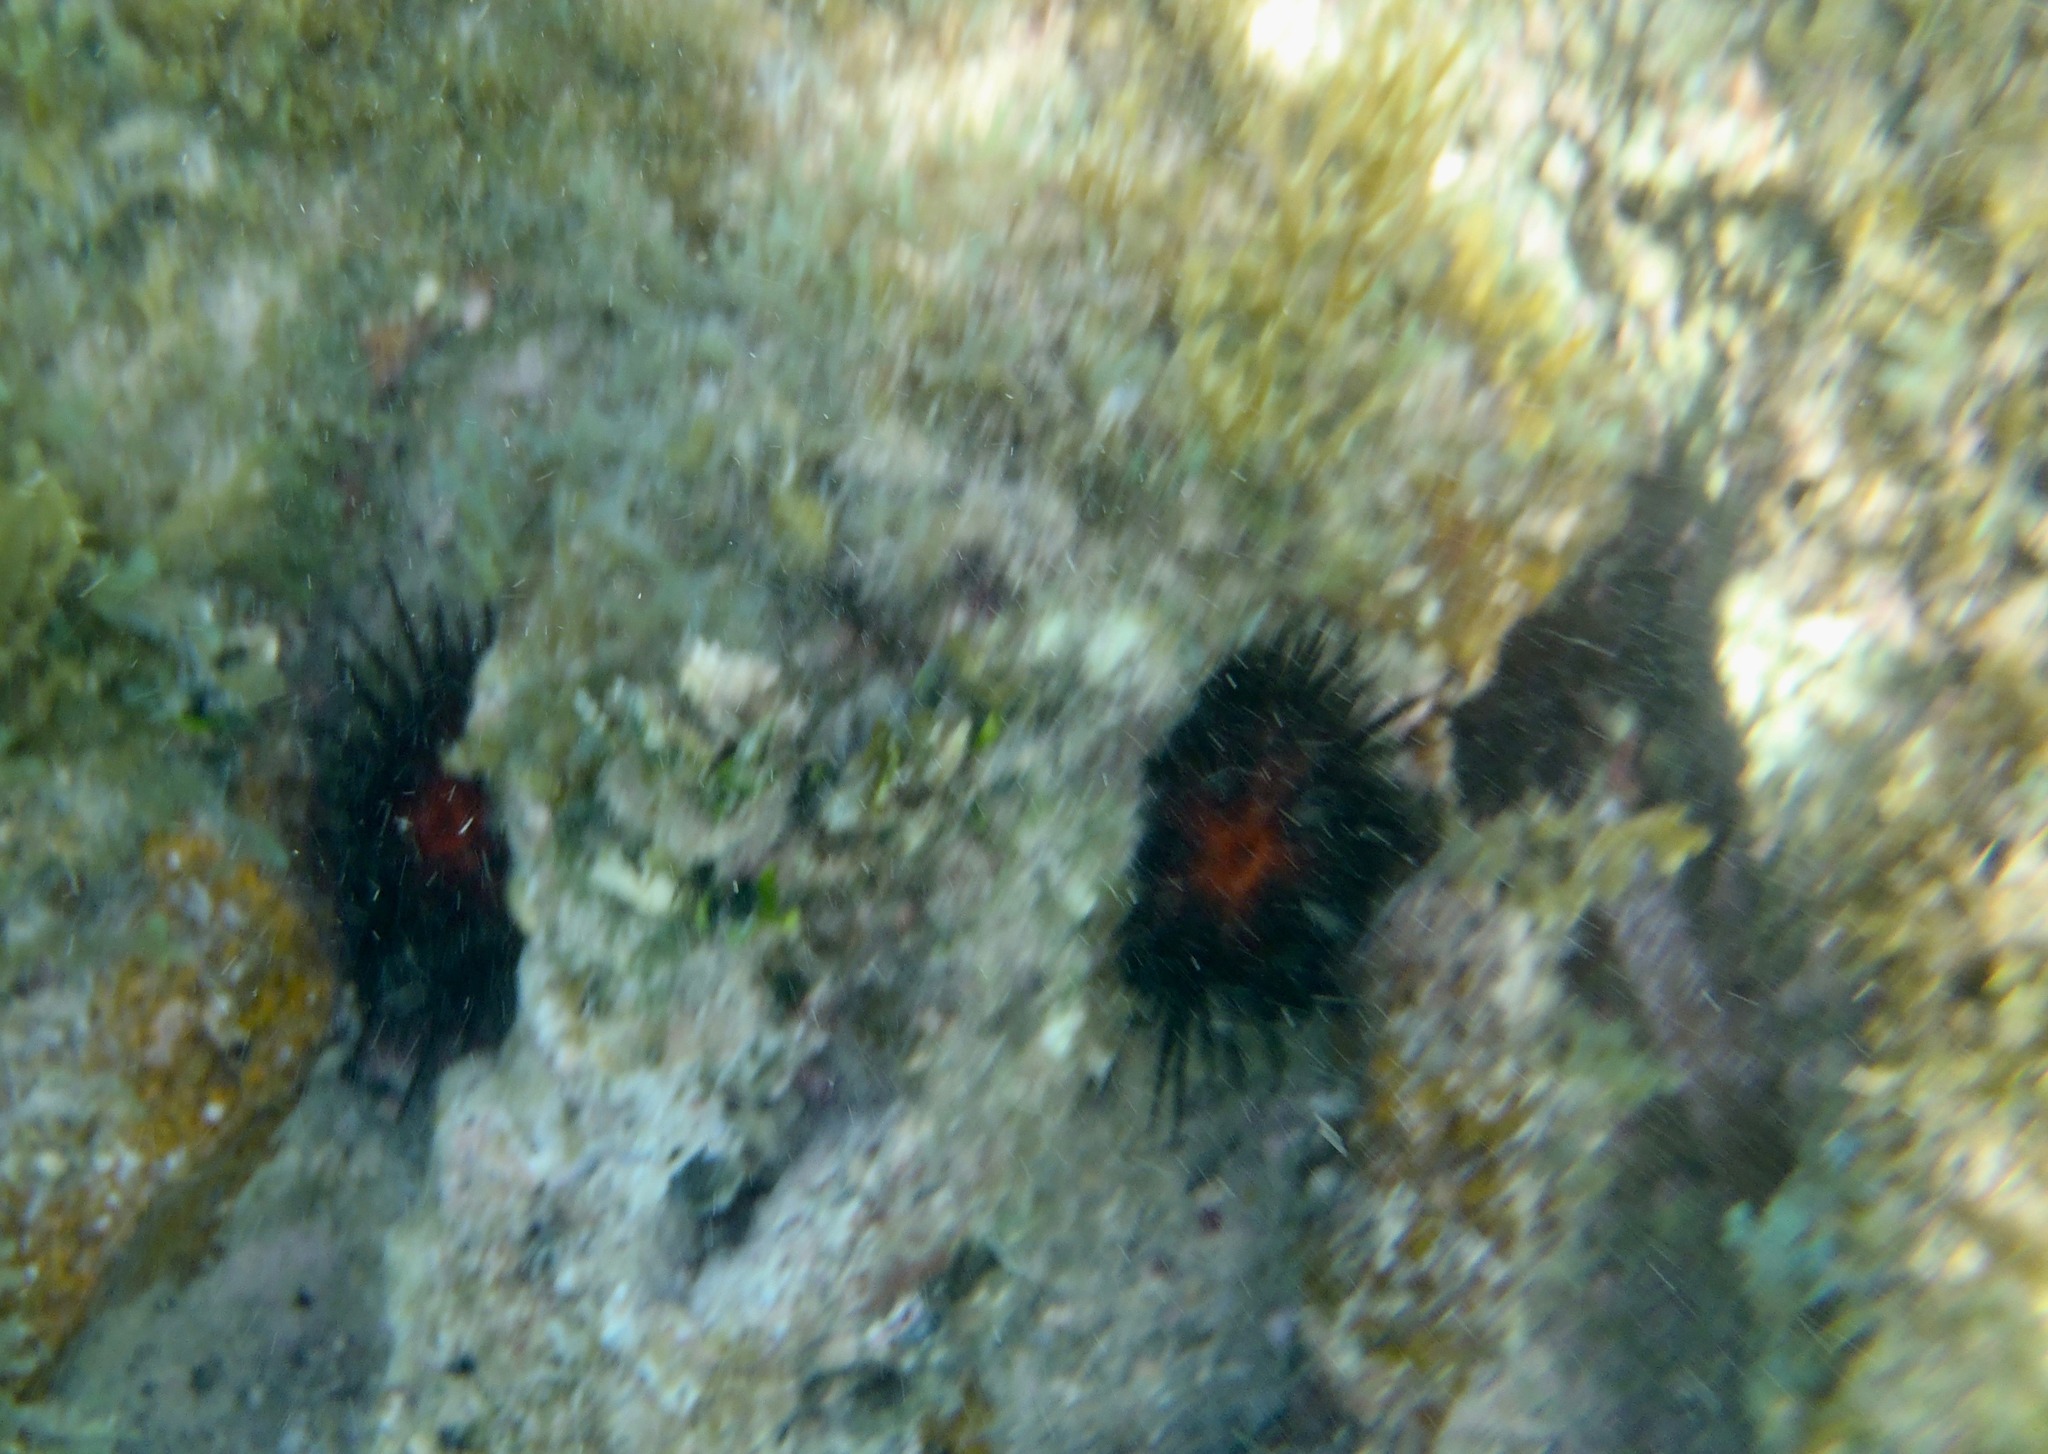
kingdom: Animalia
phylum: Echinodermata
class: Echinoidea
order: Camarodonta
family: Echinometridae
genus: Echinometra
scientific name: Echinometra lucunter
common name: Rock urchin
